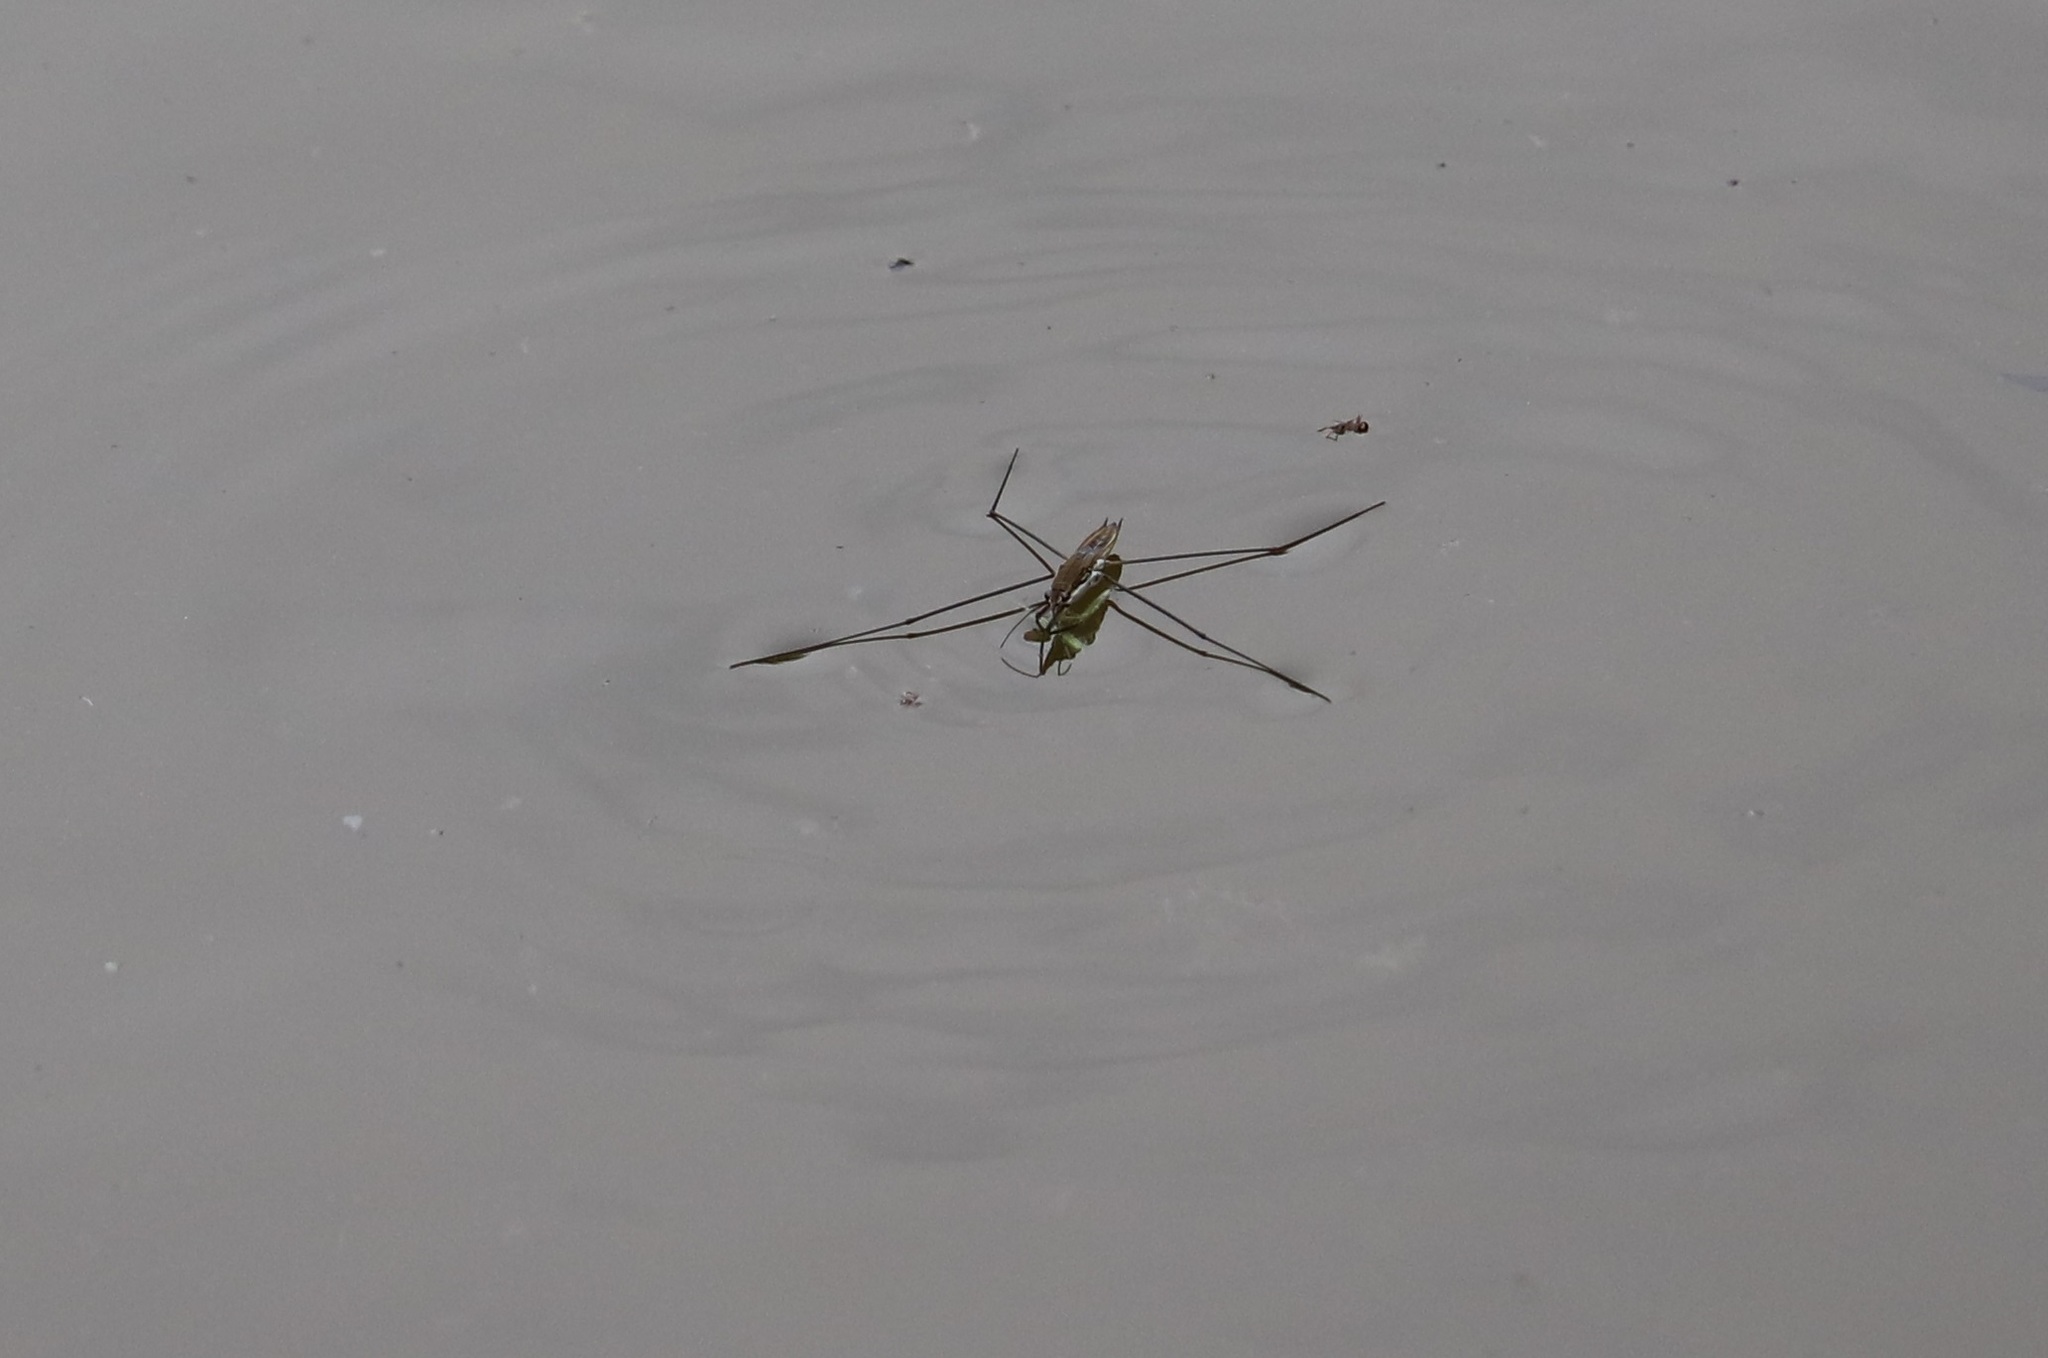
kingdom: Animalia
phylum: Arthropoda
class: Insecta
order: Hemiptera
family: Gerridae
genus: Aquarius
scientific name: Aquarius paludum
